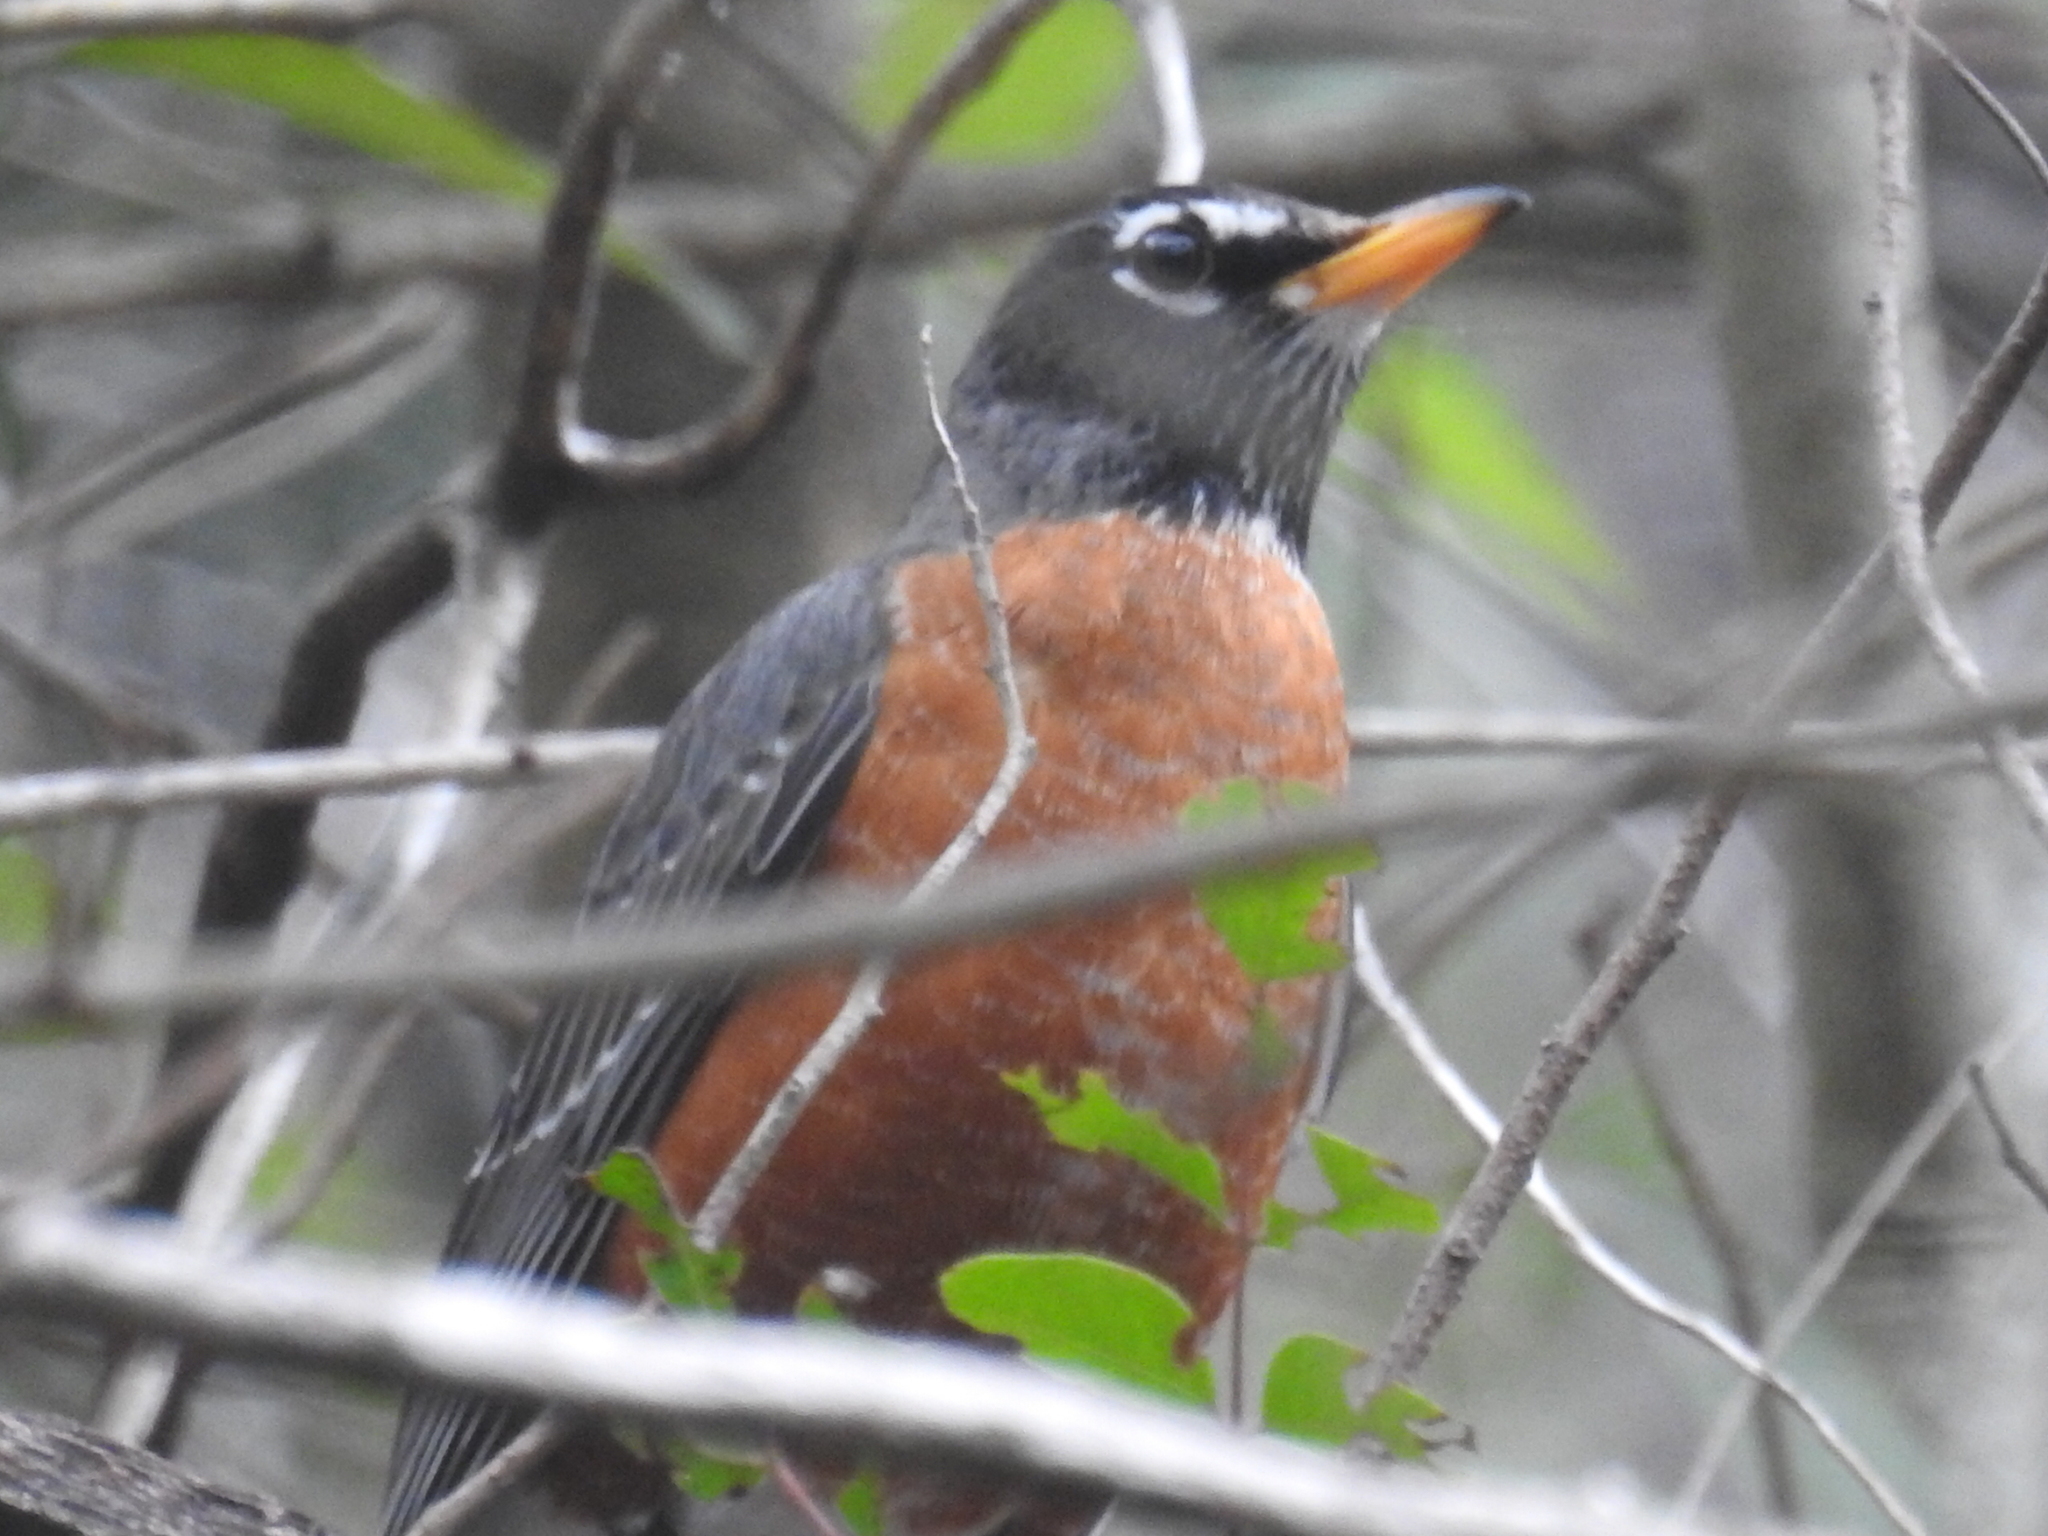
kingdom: Animalia
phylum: Chordata
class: Aves
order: Passeriformes
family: Turdidae
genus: Turdus
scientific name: Turdus migratorius
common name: American robin
